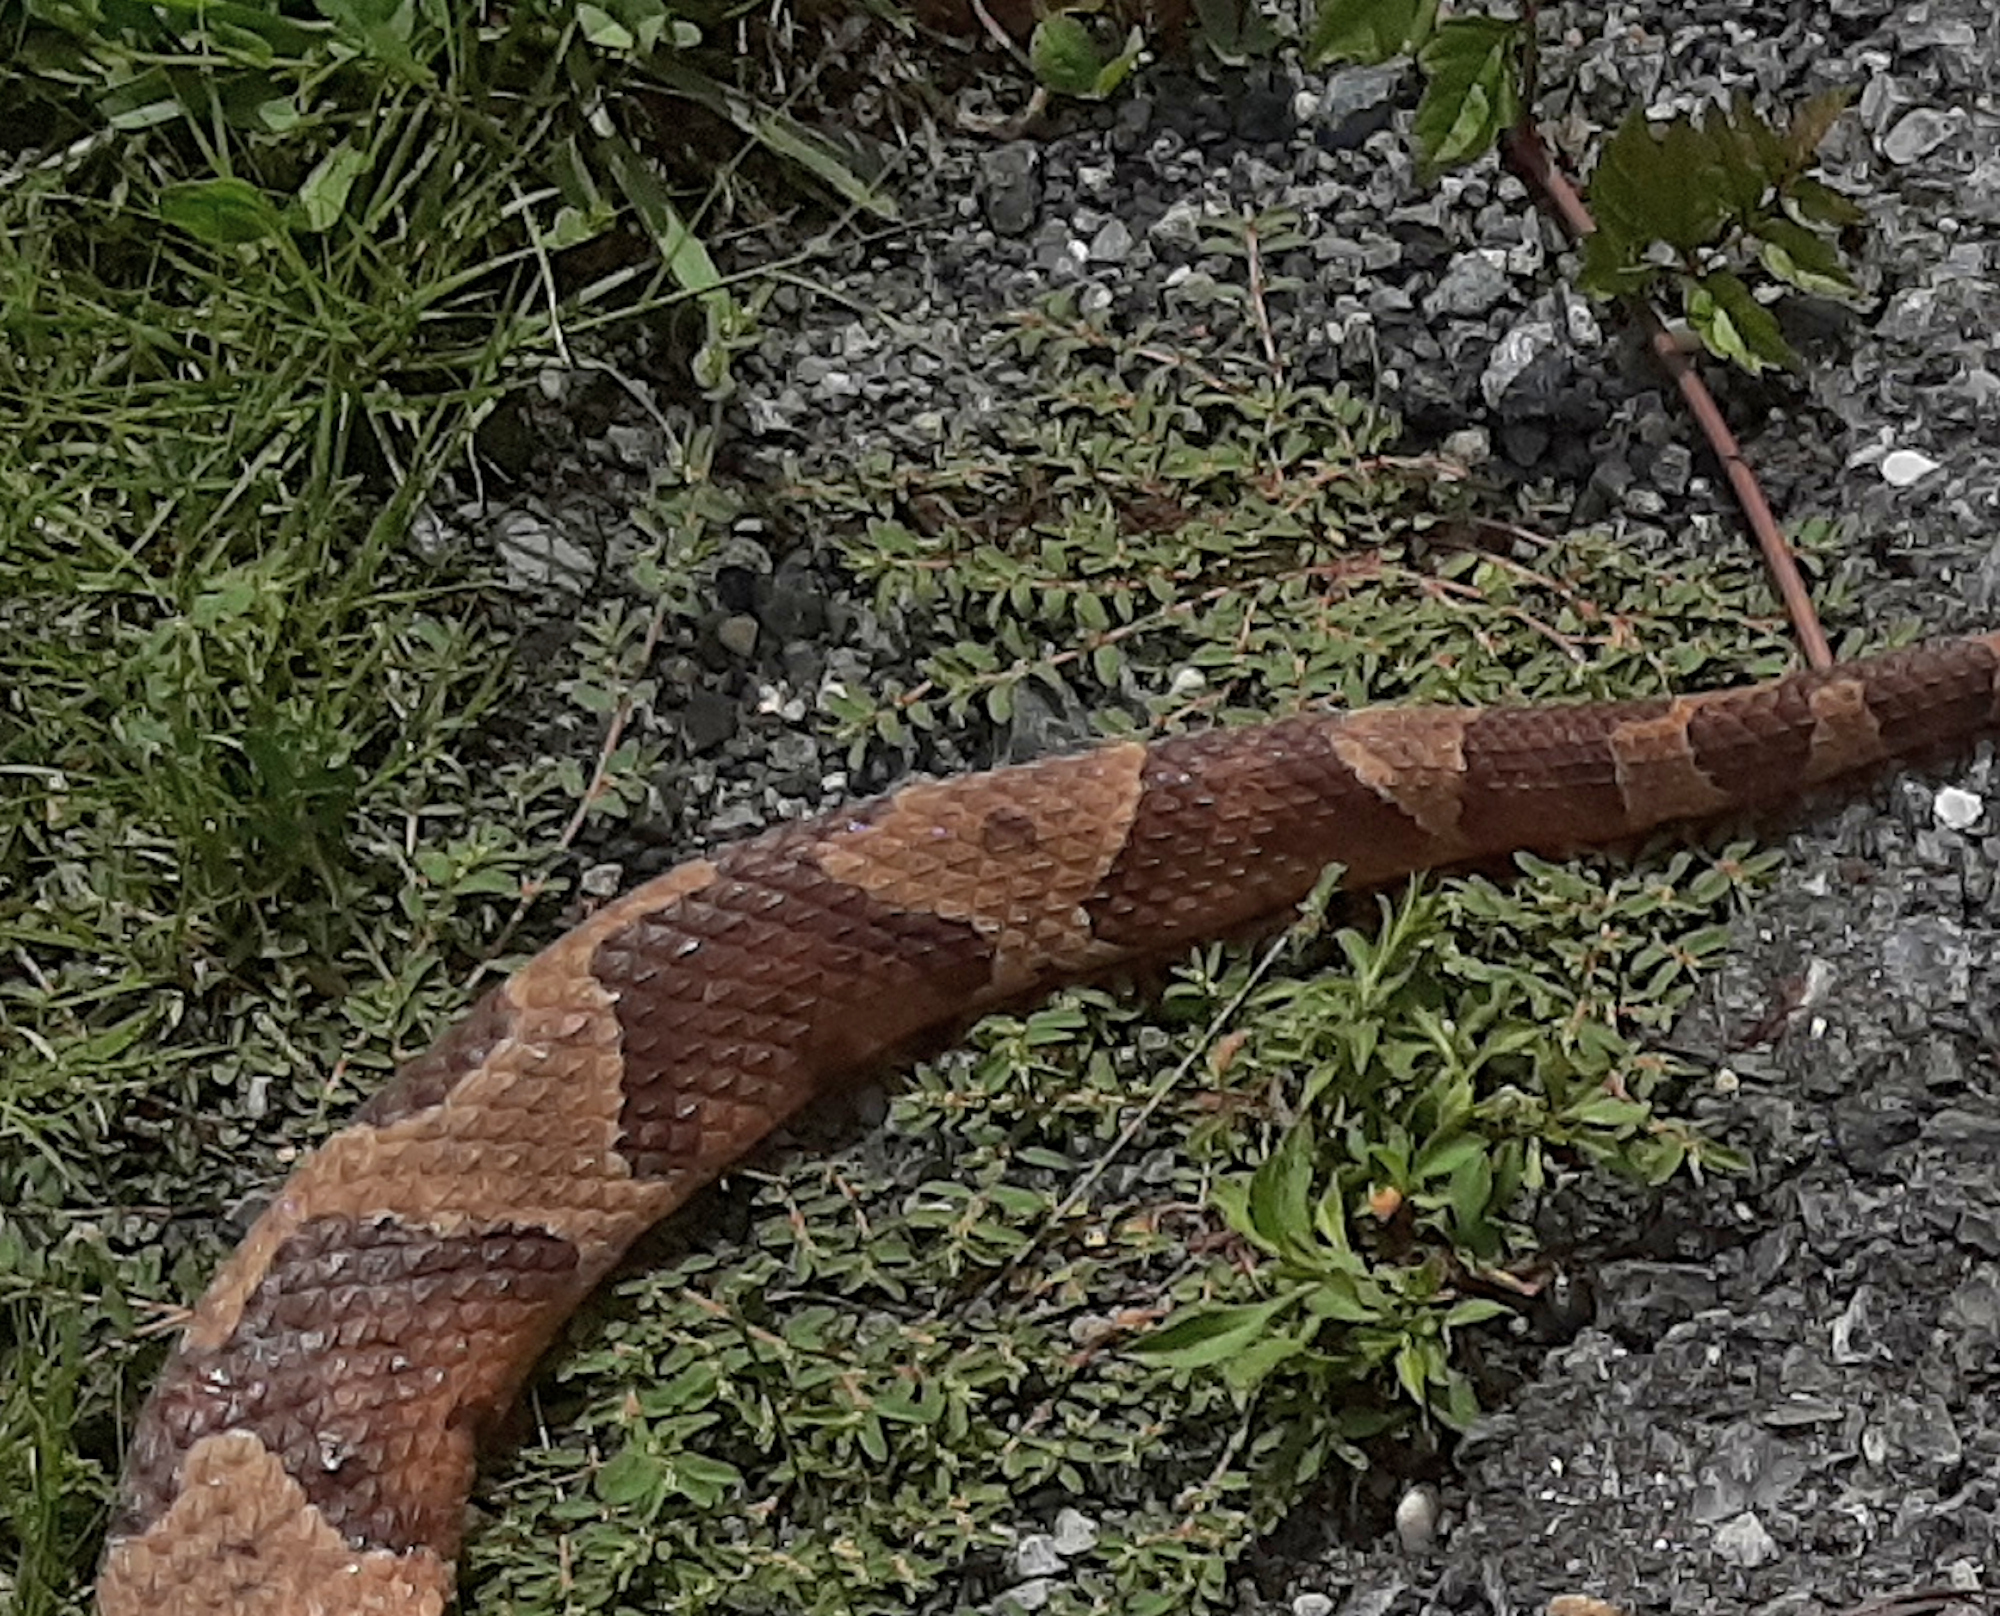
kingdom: Animalia
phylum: Chordata
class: Squamata
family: Viperidae
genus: Agkistrodon
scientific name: Agkistrodon contortrix
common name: Northern copperhead
